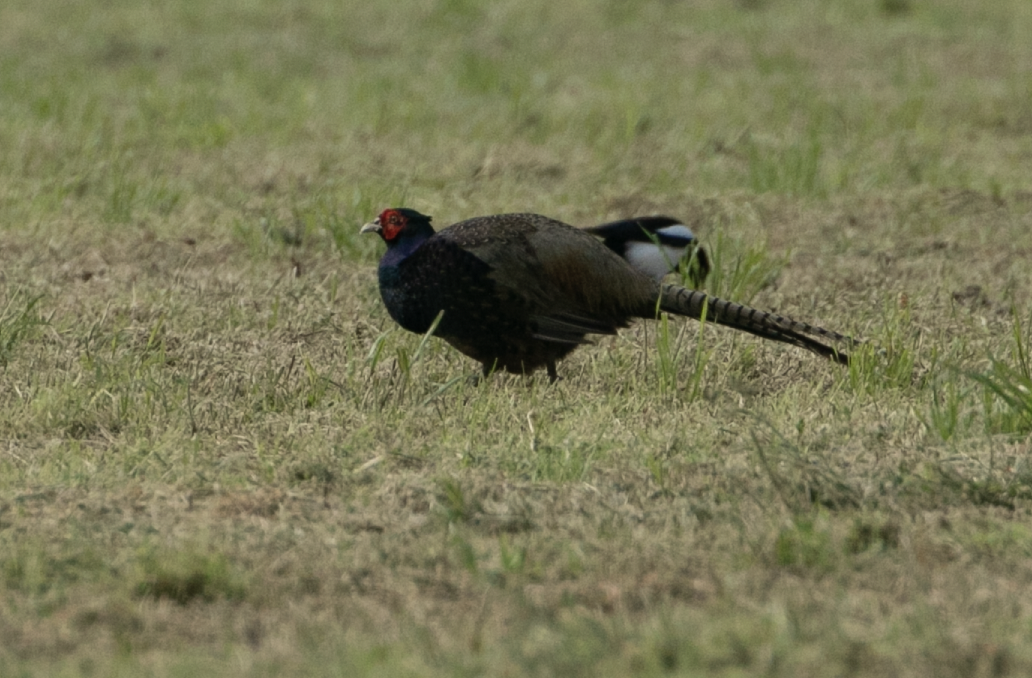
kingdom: Animalia
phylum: Chordata
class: Aves
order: Galliformes
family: Phasianidae
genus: Phasianus
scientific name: Phasianus colchicus
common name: Common pheasant
